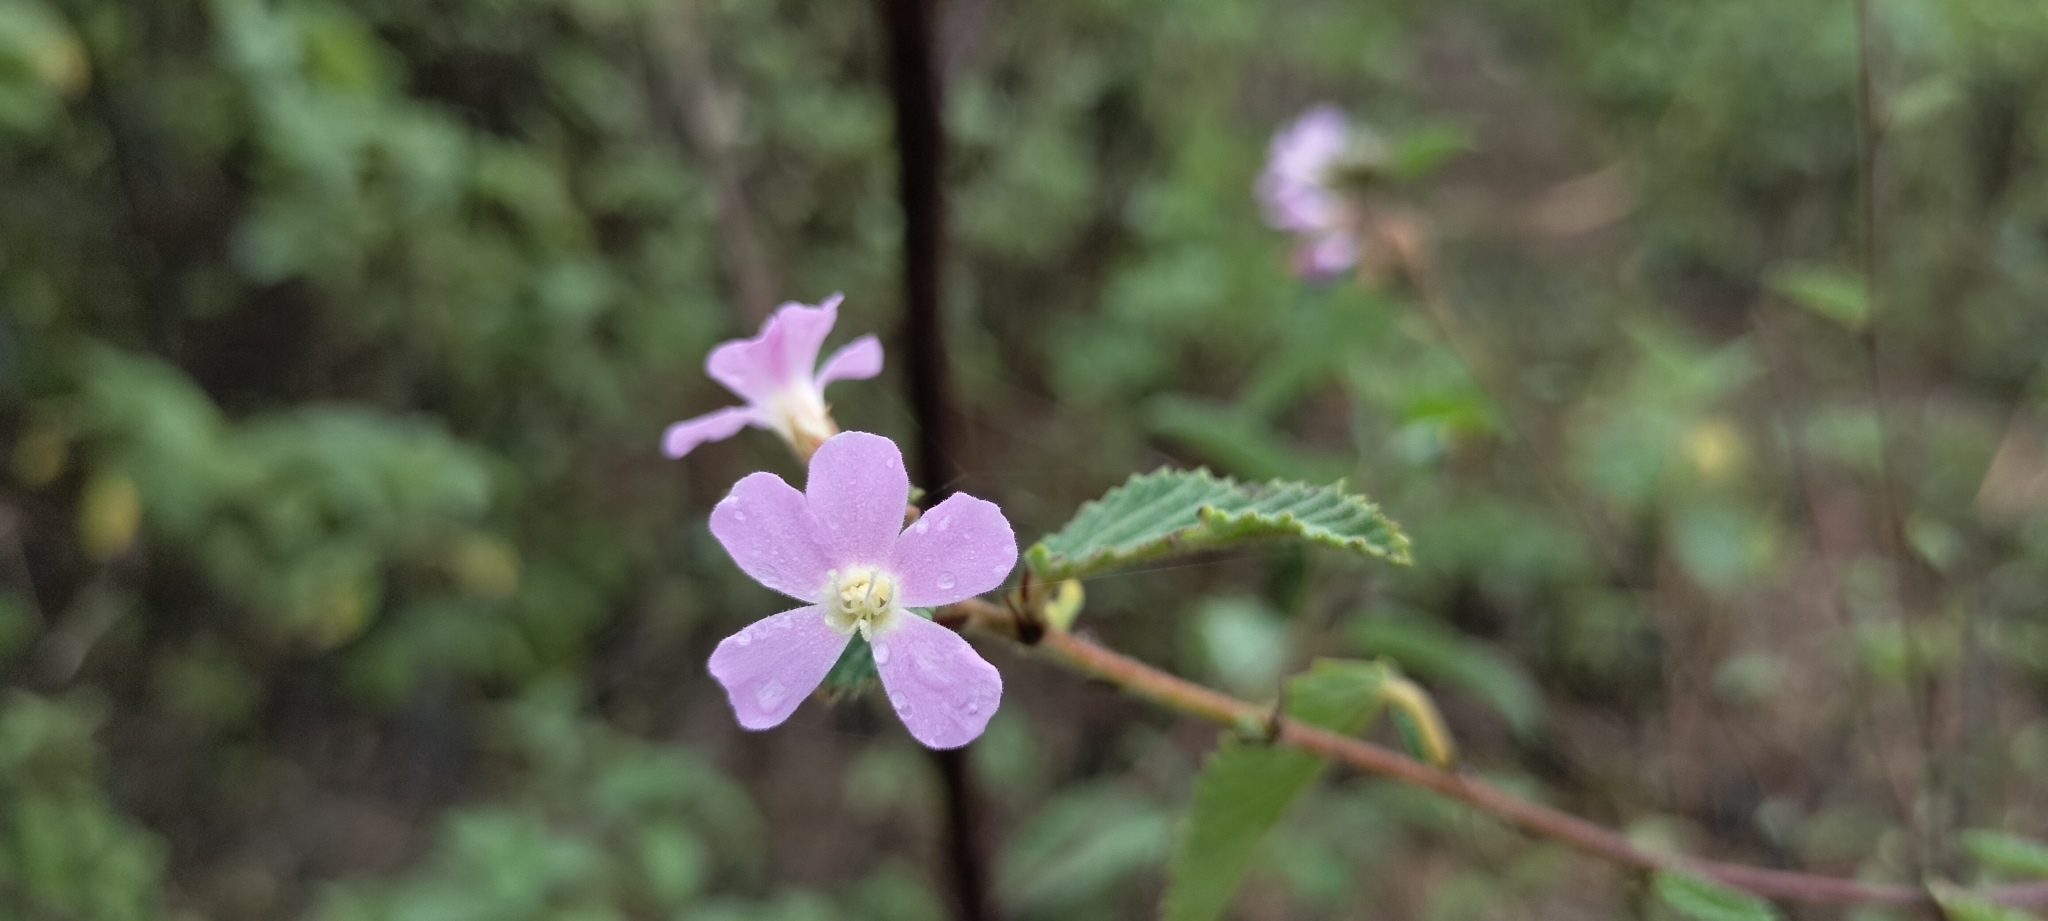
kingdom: Plantae
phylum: Tracheophyta
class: Magnoliopsida
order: Malvales
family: Malvaceae
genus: Melochia
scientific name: Melochia tomentosa
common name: Black torch
